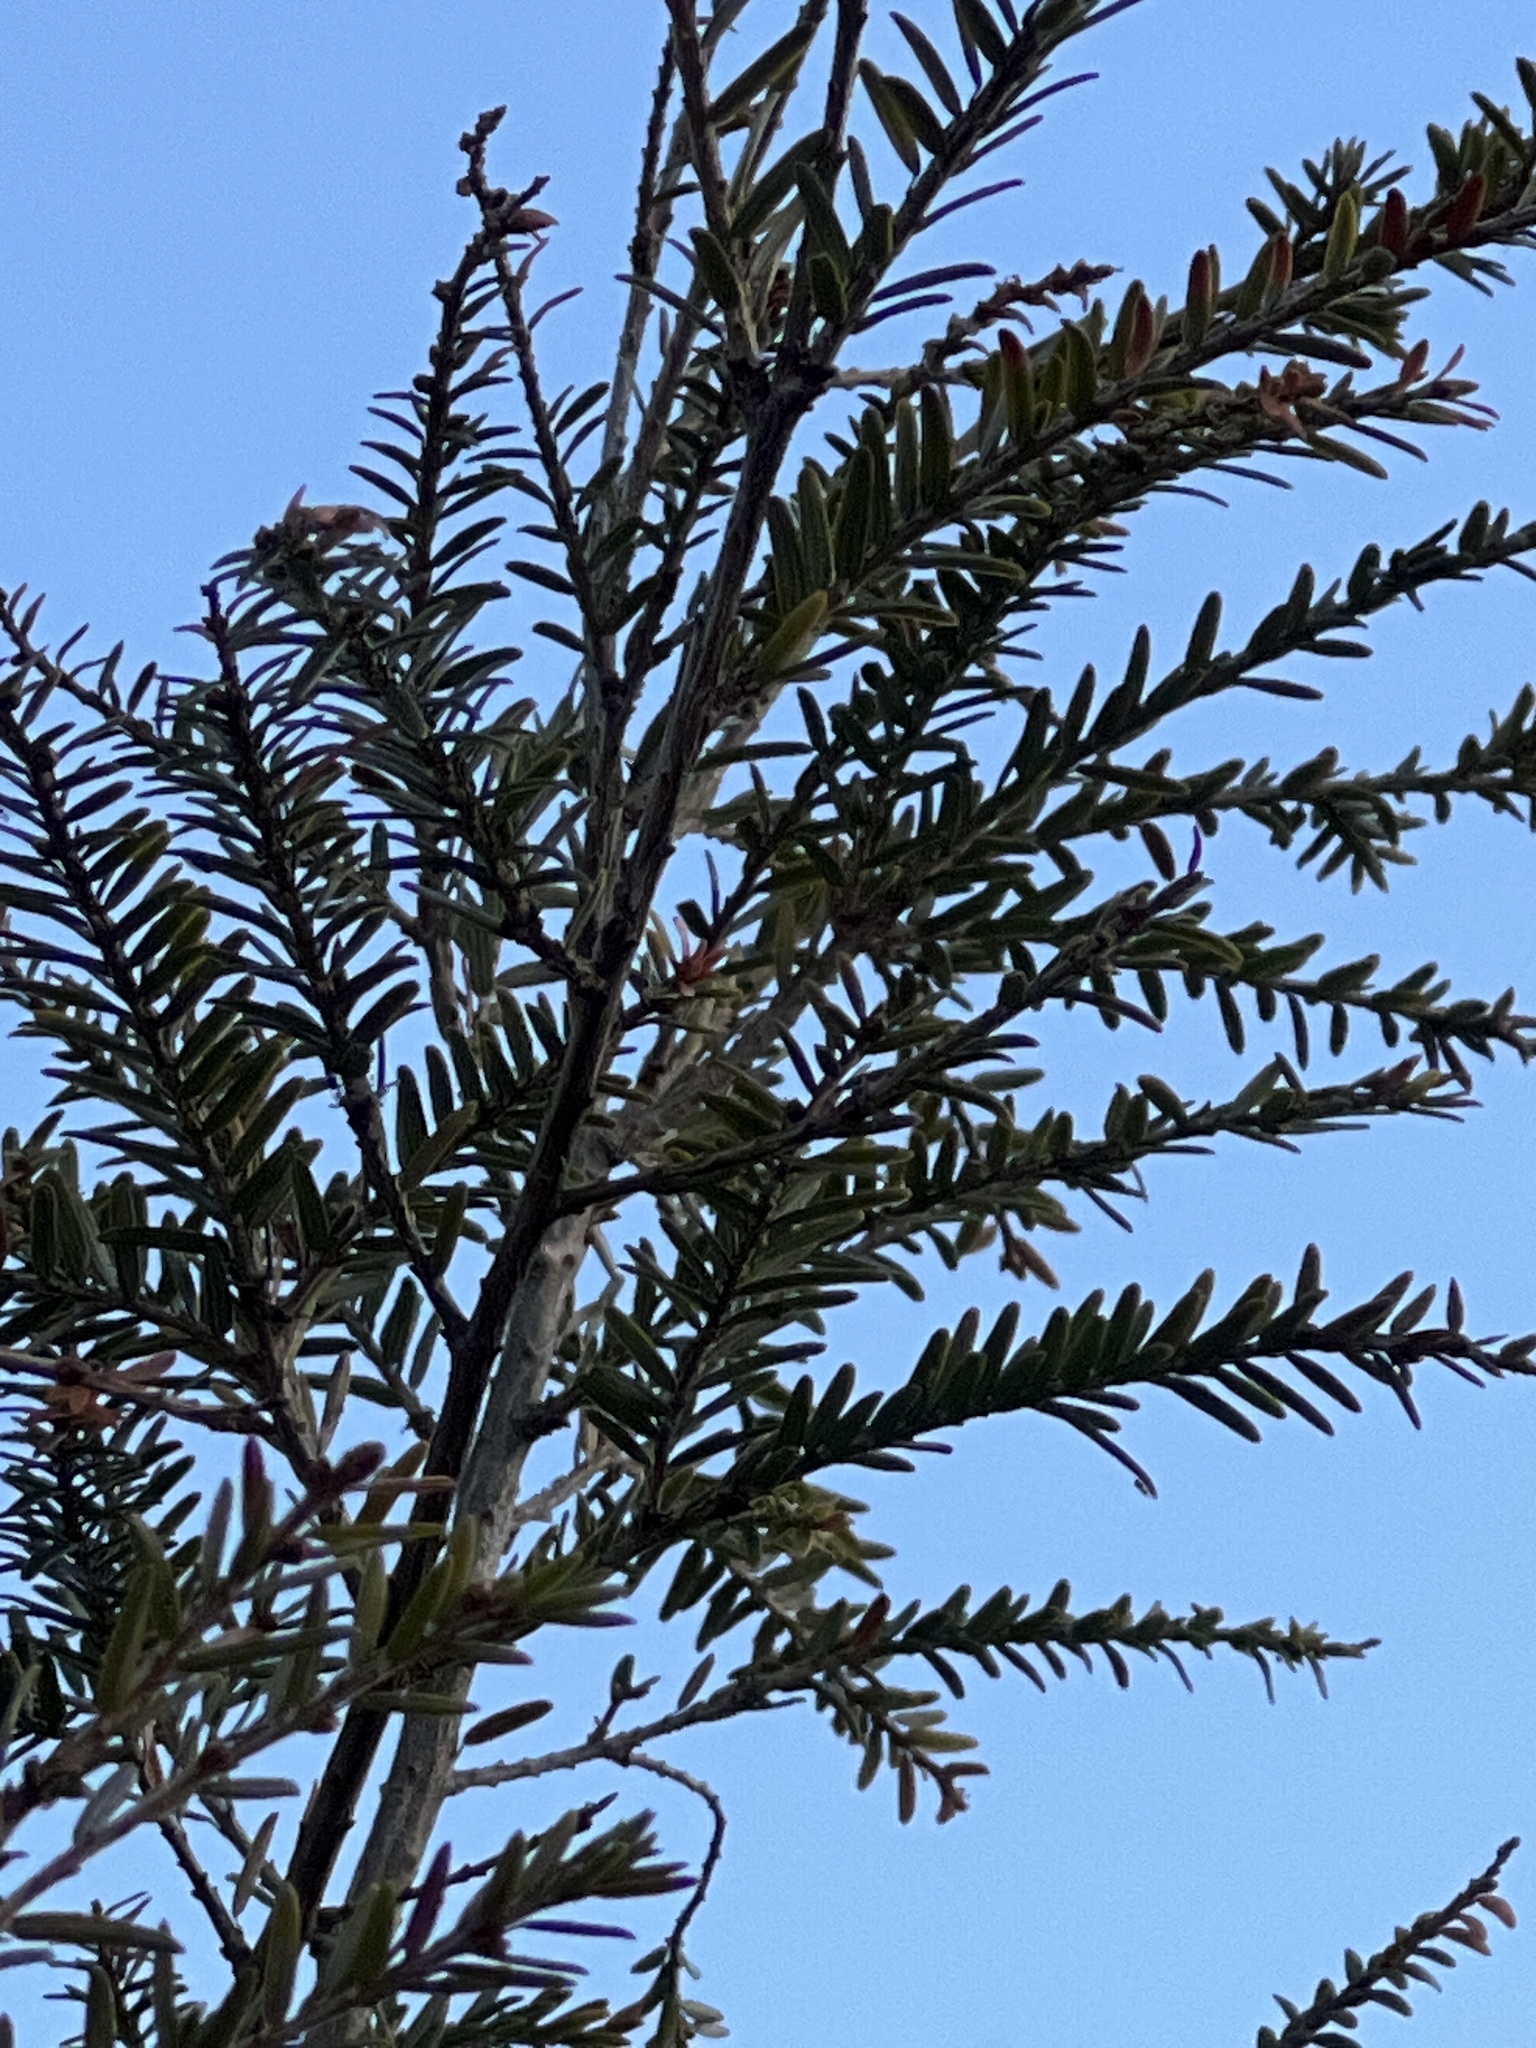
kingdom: Plantae
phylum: Tracheophyta
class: Pinopsida
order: Pinales
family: Pinaceae
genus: Tsuga
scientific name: Tsuga canadensis
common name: Eastern hemlock
